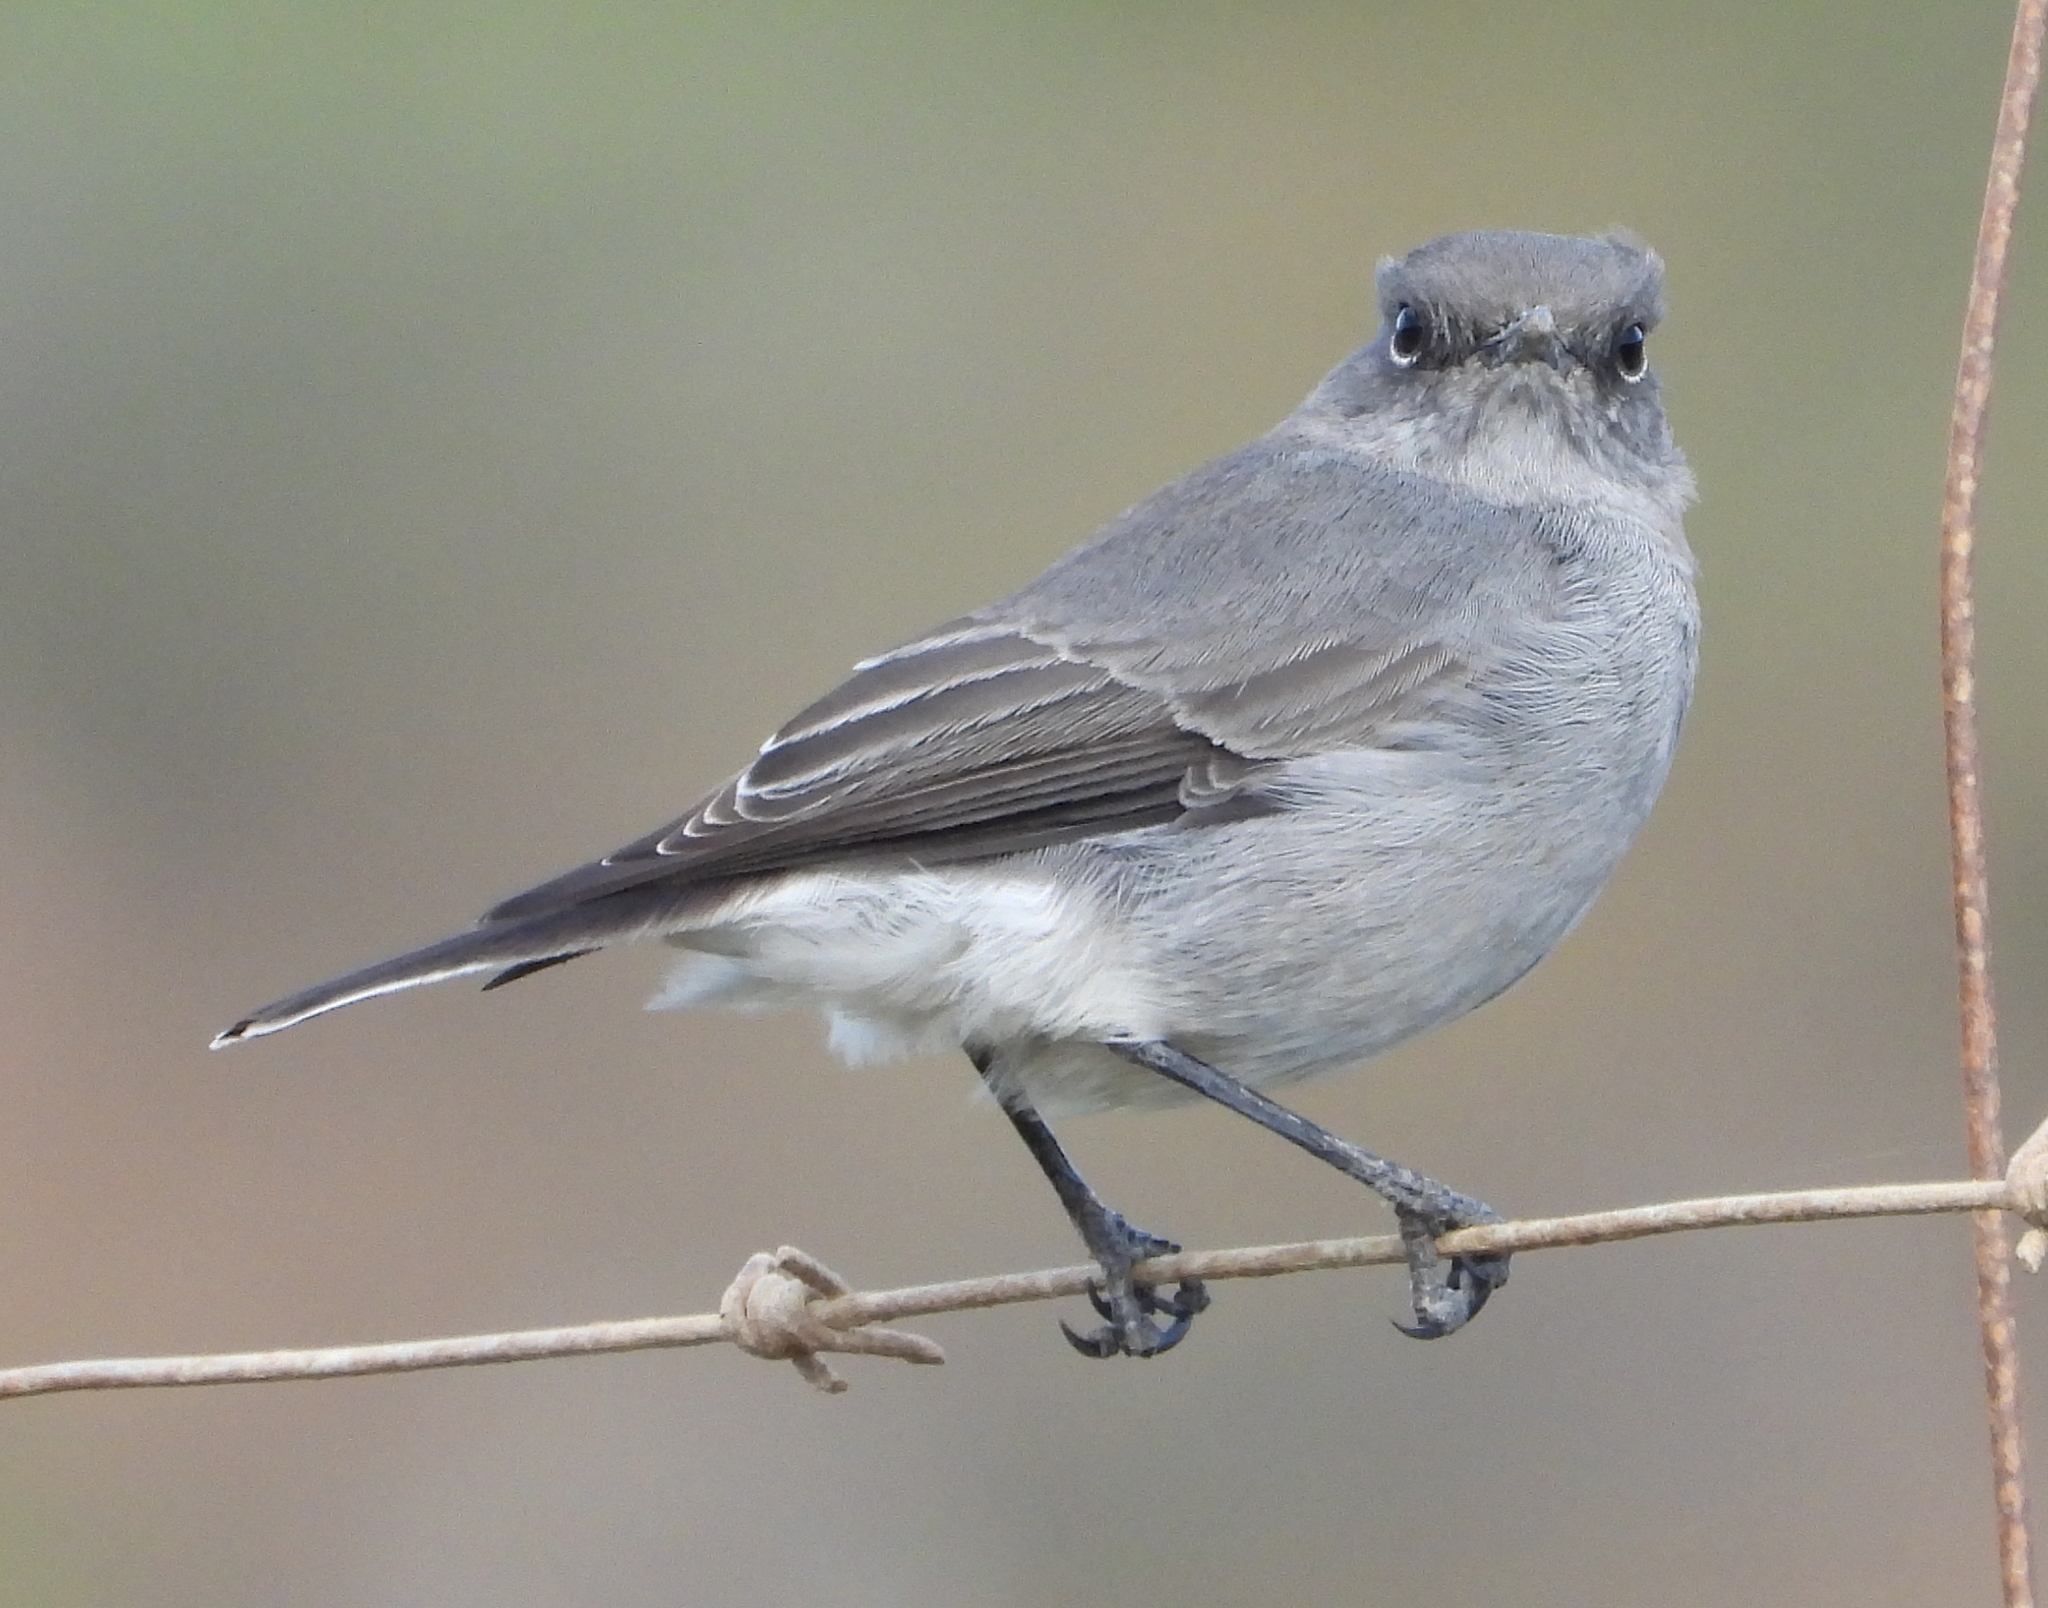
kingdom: Animalia
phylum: Chordata
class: Aves
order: Passeriformes
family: Muscicapidae
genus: Emarginata
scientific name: Emarginata schlegelii
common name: Karoo chat
